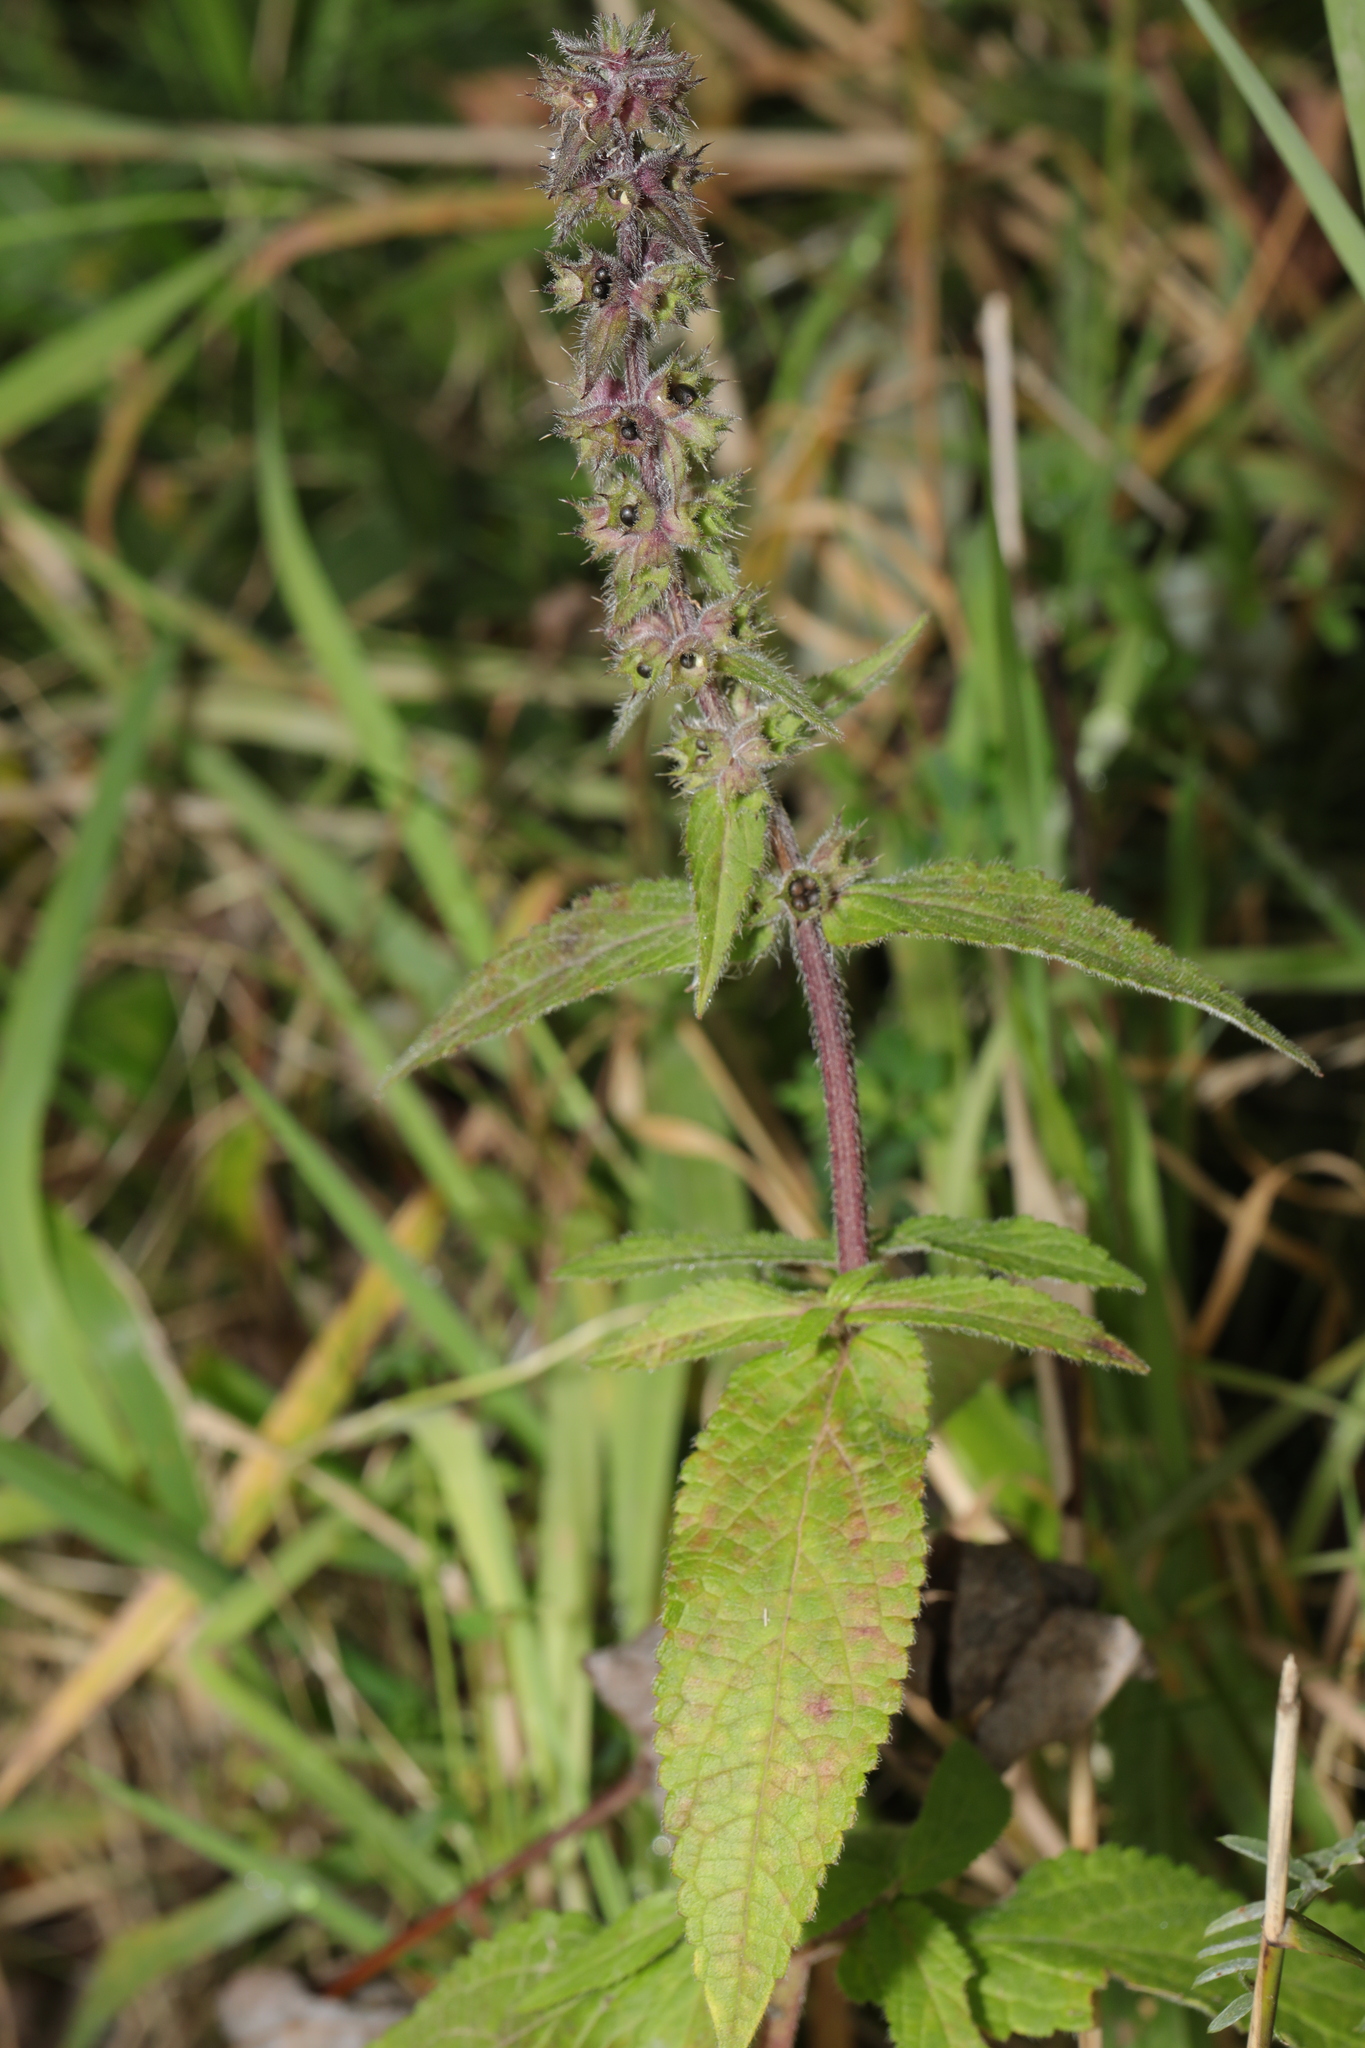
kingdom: Plantae
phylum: Tracheophyta
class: Magnoliopsida
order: Lamiales
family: Lamiaceae
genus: Stachys
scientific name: Stachys palustris
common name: Marsh woundwort
